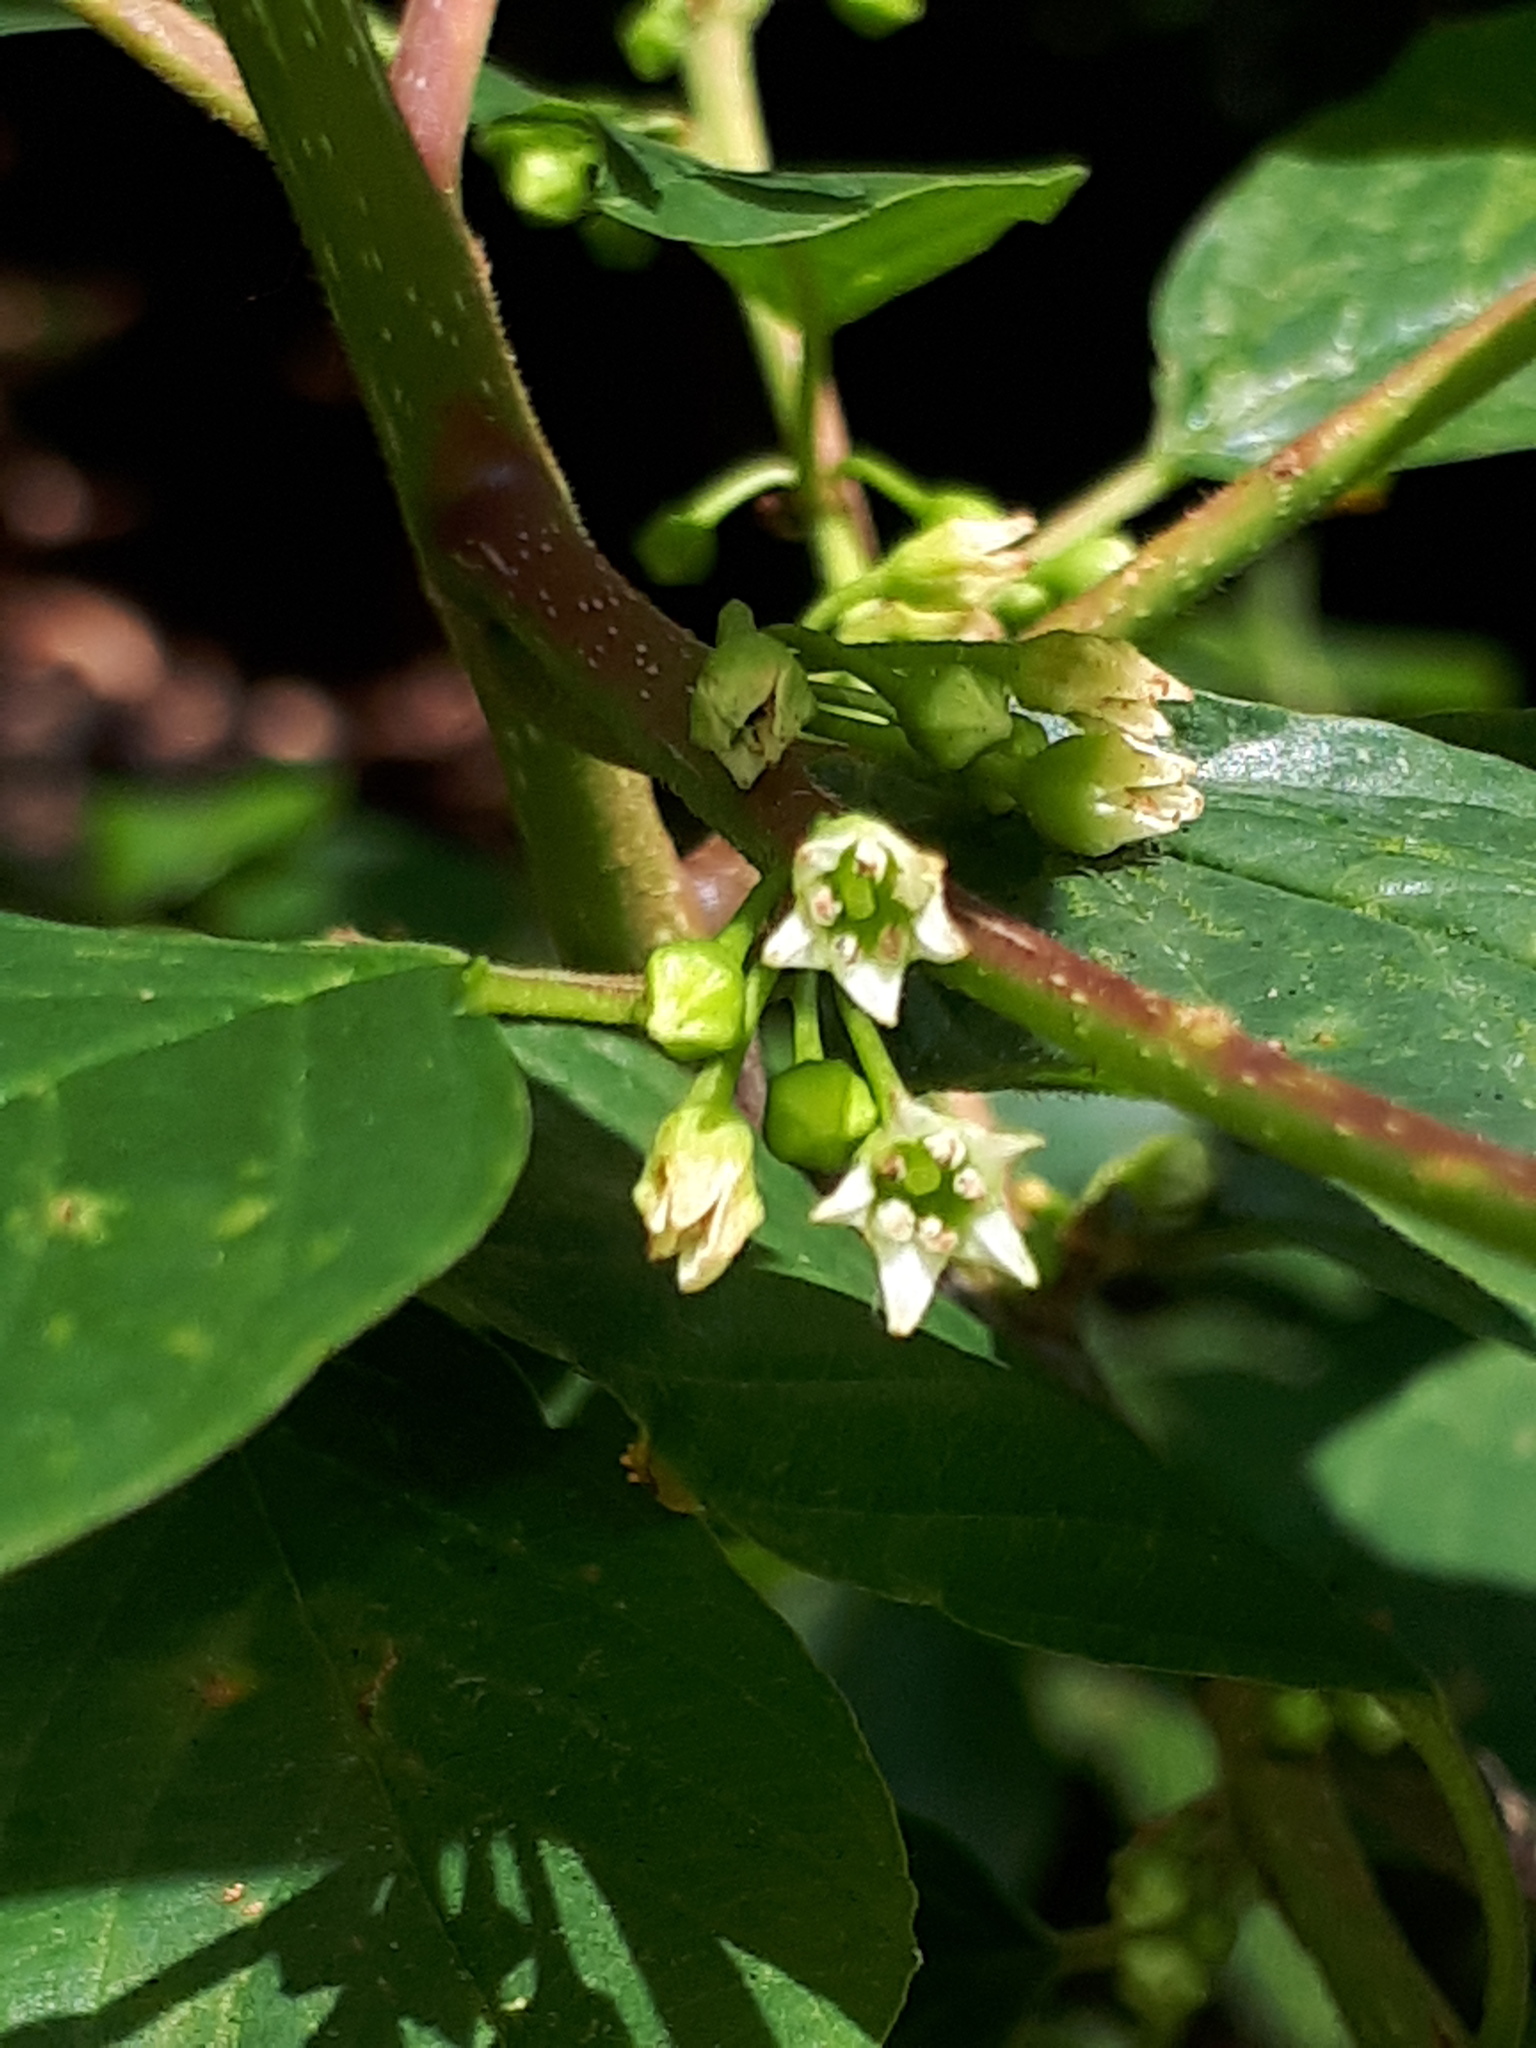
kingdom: Plantae
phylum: Tracheophyta
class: Magnoliopsida
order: Rosales
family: Rhamnaceae
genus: Frangula
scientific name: Frangula alnus
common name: Alder buckthorn
